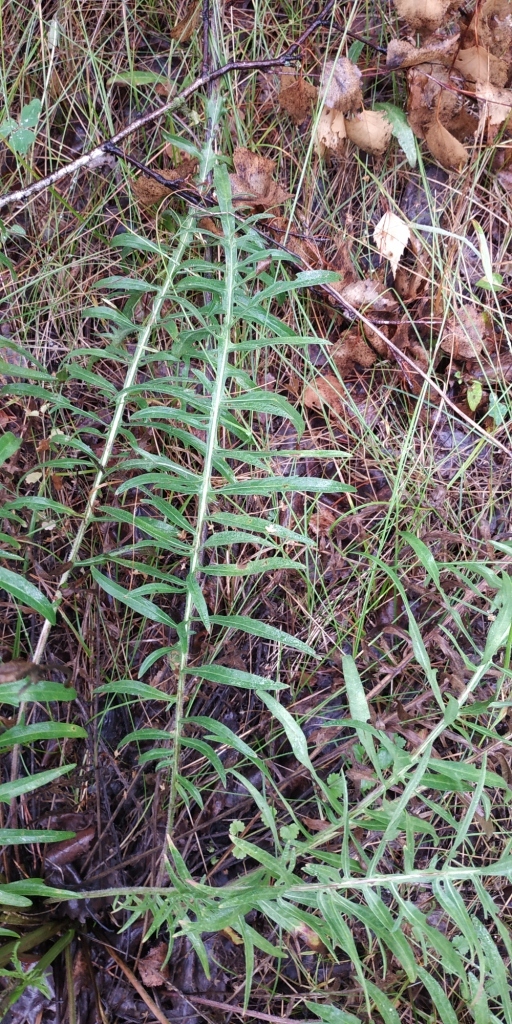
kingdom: Plantae
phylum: Tracheophyta
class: Magnoliopsida
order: Asterales
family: Asteraceae
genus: Centaurea
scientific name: Centaurea scabiosa
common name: Greater knapweed
